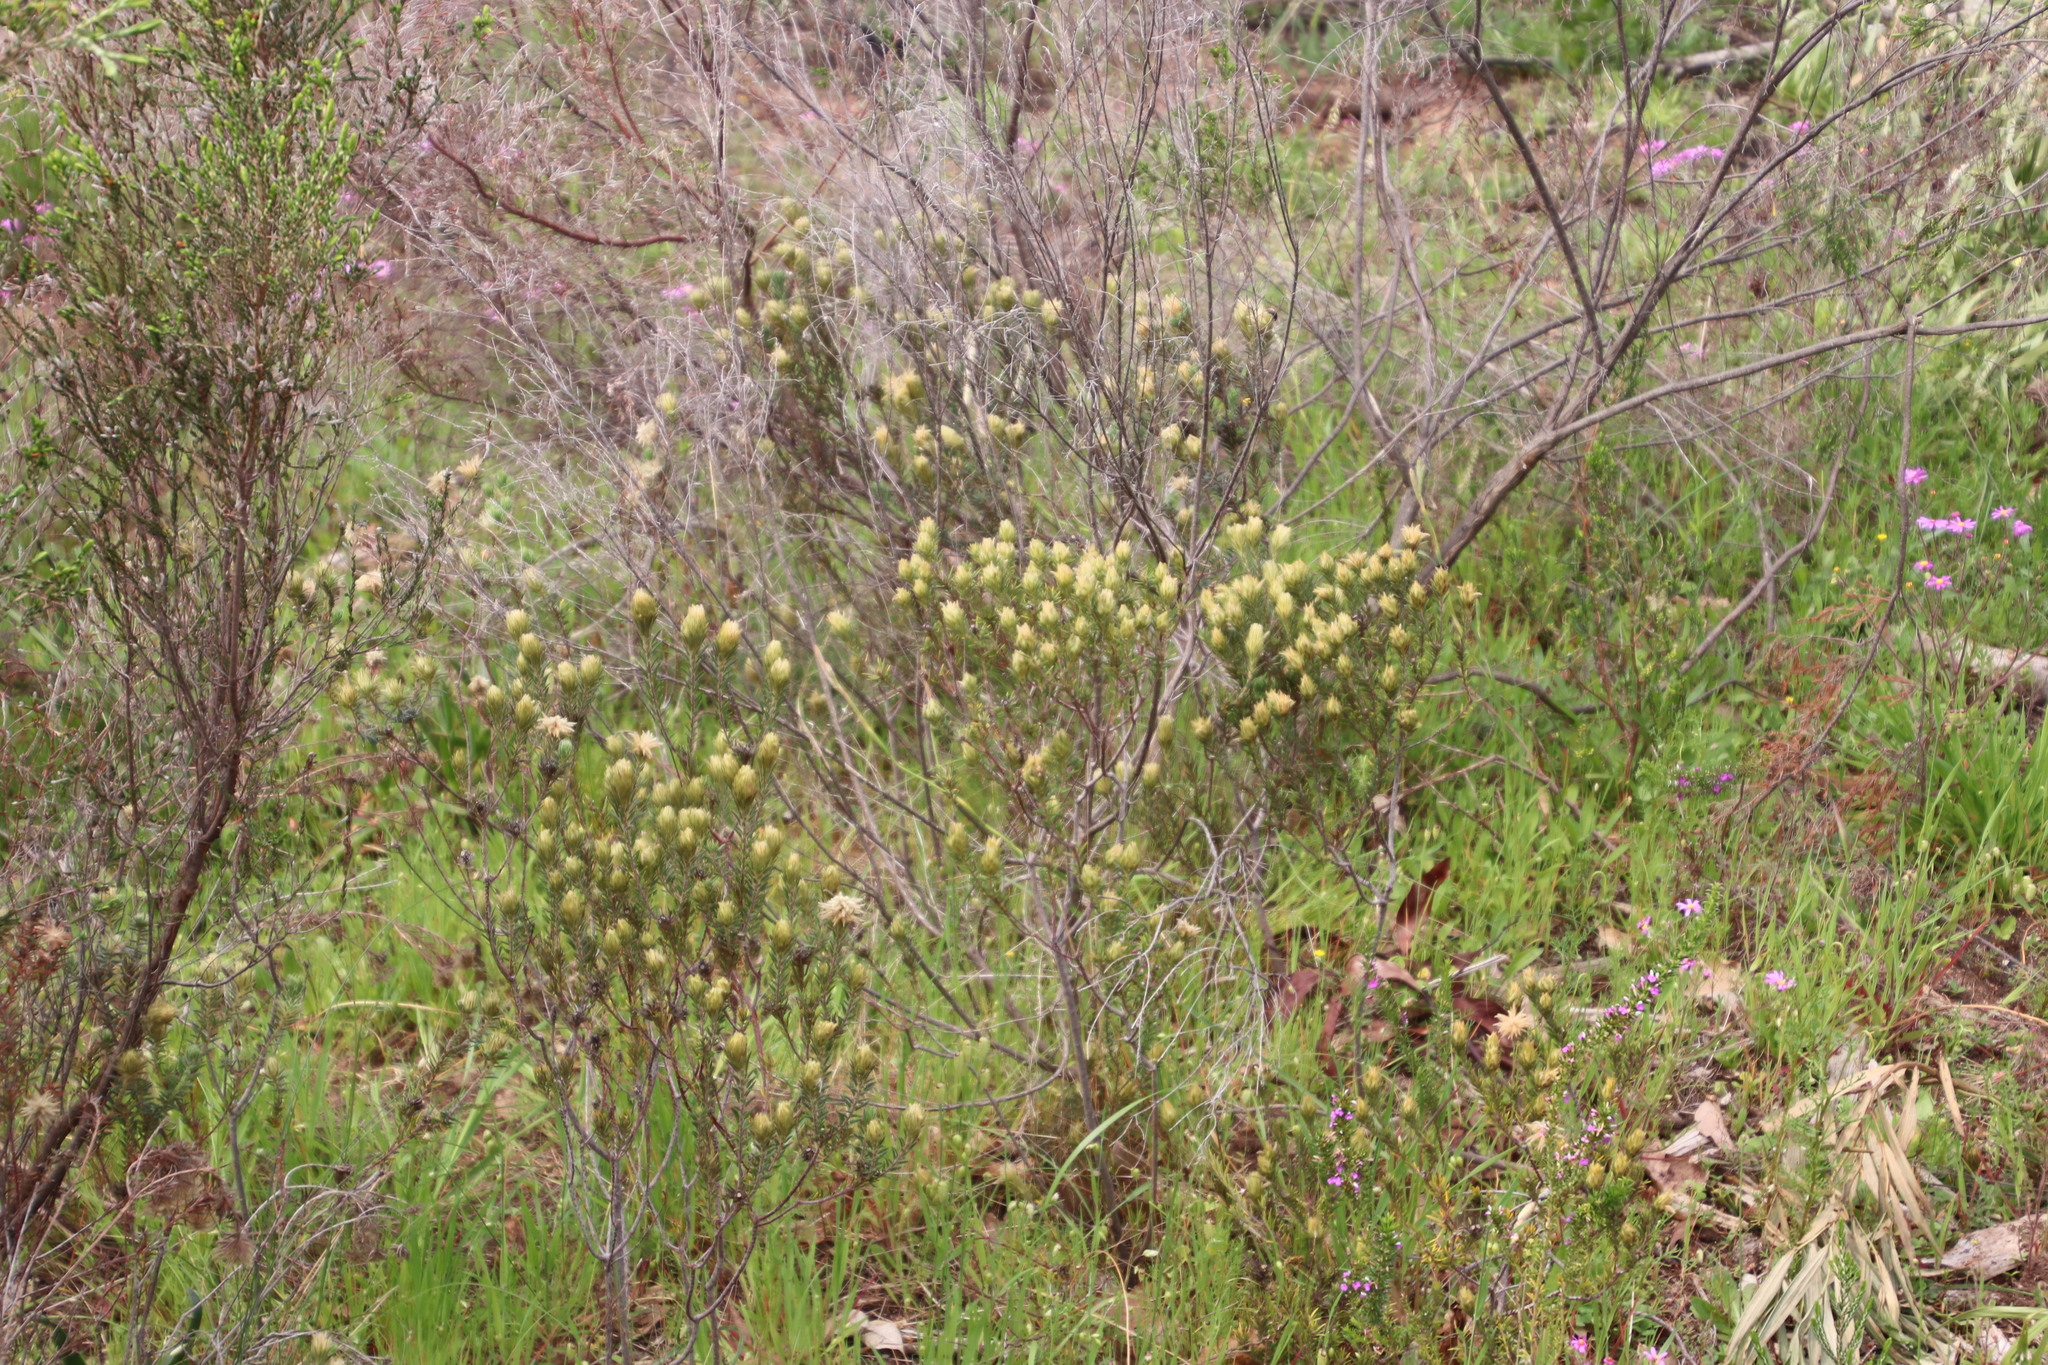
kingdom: Plantae
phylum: Tracheophyta
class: Magnoliopsida
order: Rosales
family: Rhamnaceae
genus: Phylica
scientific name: Phylica pubescens
